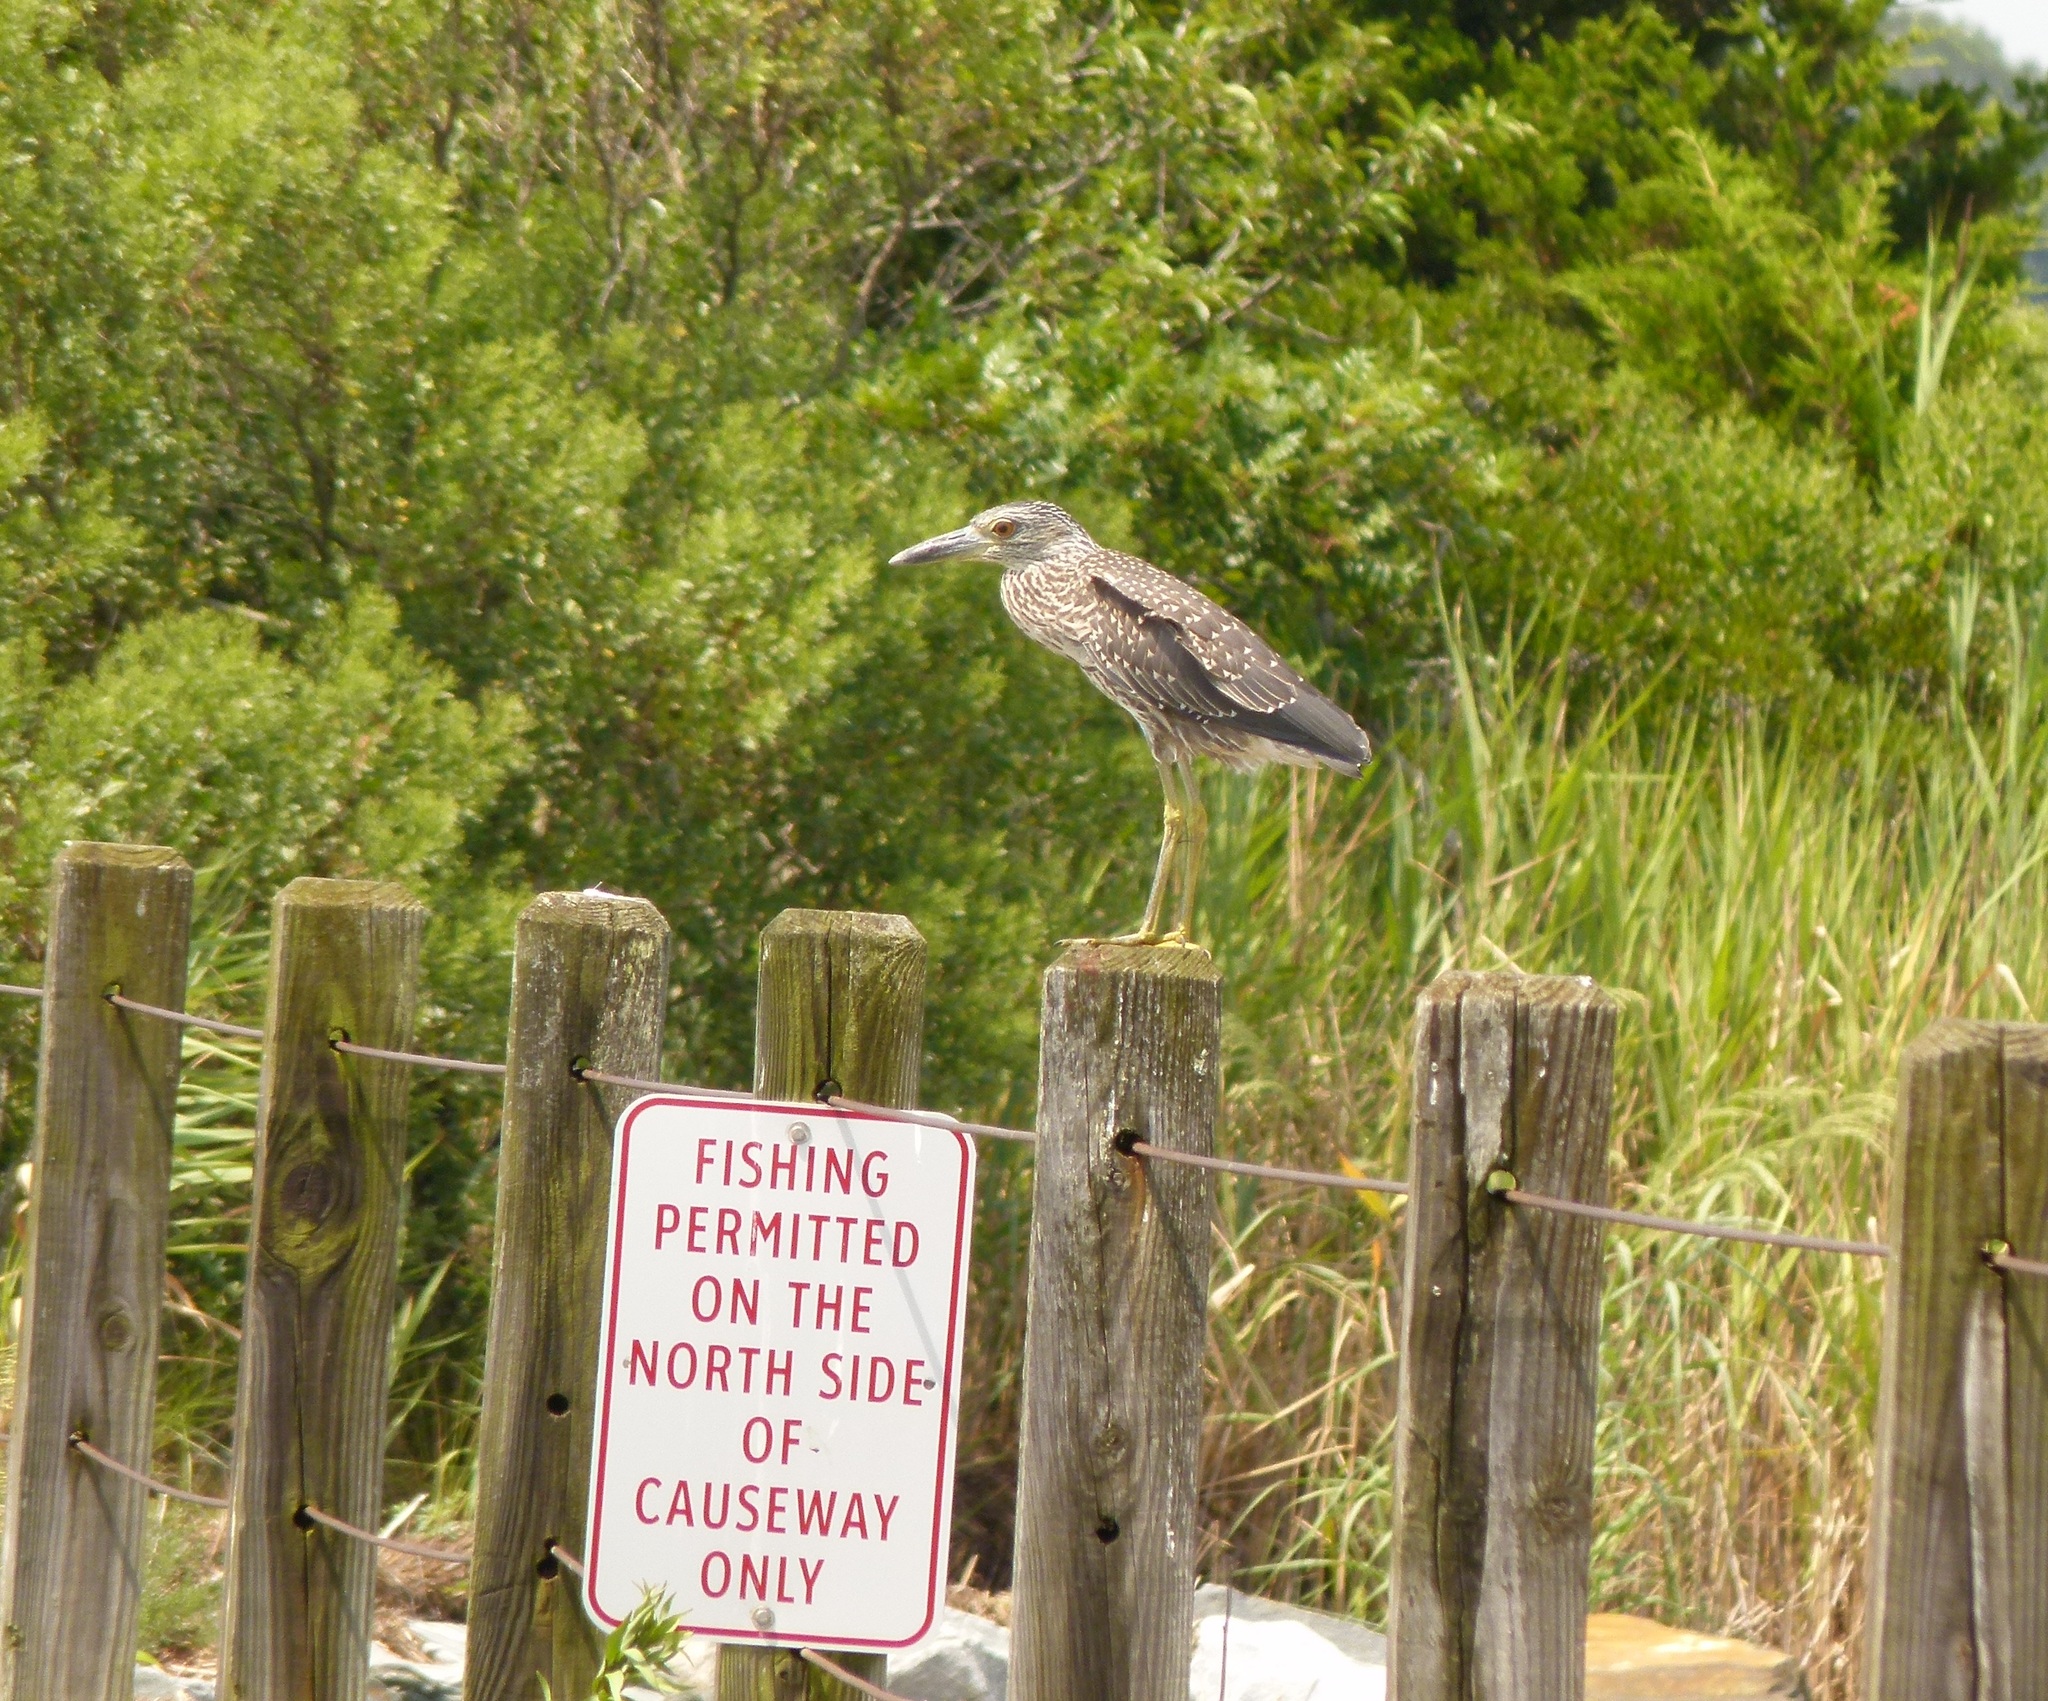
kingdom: Animalia
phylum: Chordata
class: Aves
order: Pelecaniformes
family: Ardeidae
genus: Nyctanassa
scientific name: Nyctanassa violacea
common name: Yellow-crowned night heron
